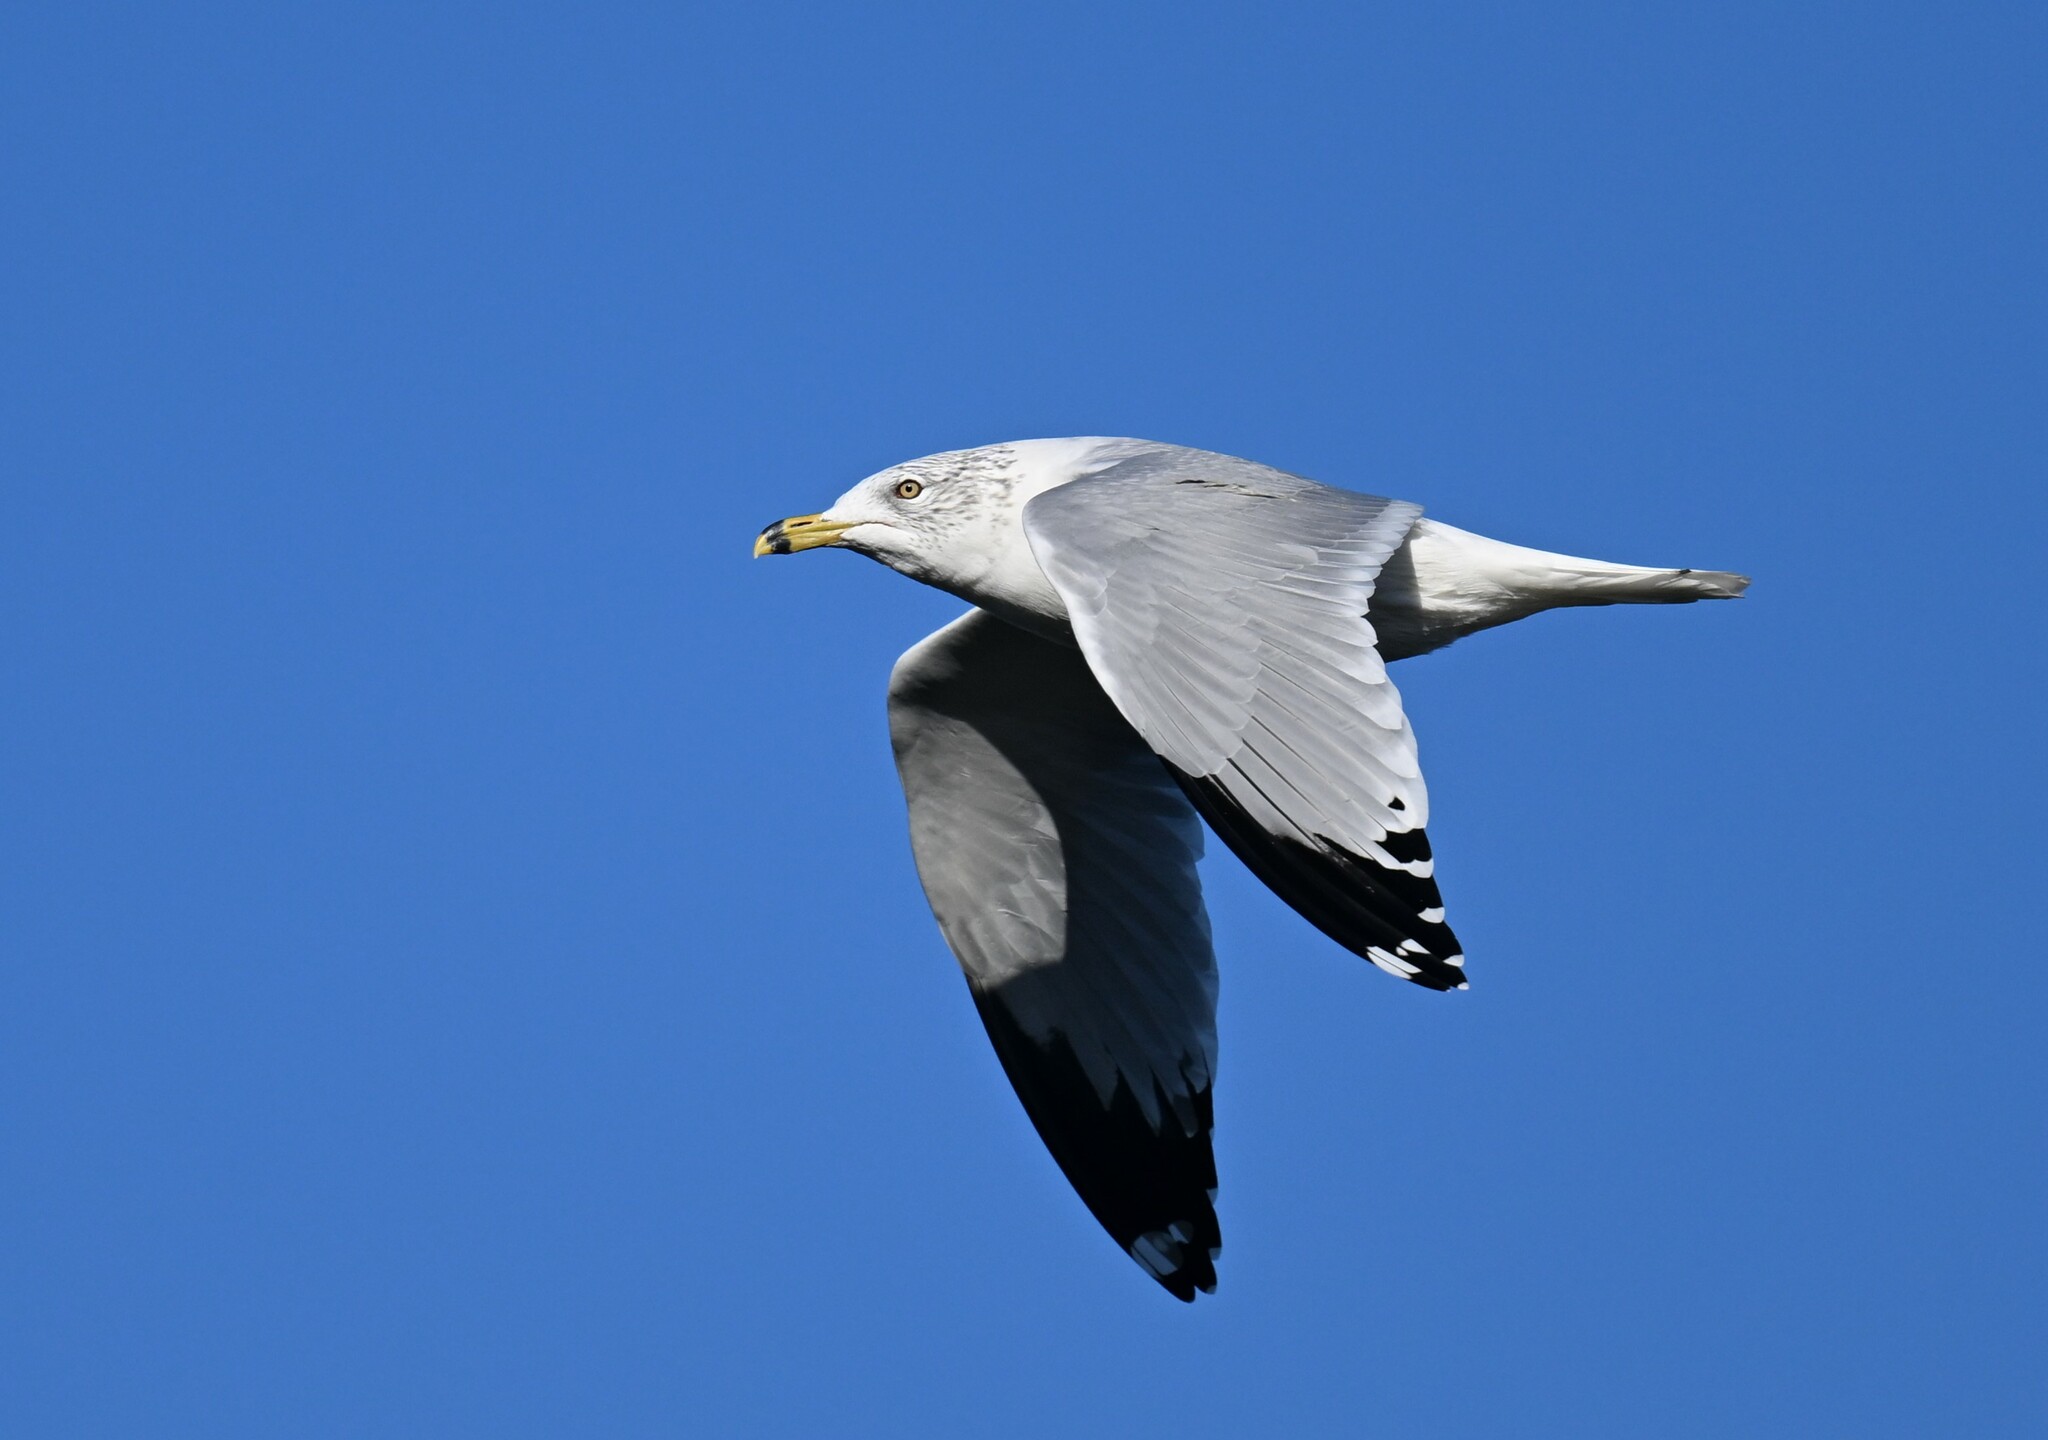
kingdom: Animalia
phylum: Chordata
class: Aves
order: Charadriiformes
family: Laridae
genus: Larus
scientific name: Larus delawarensis
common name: Ring-billed gull
